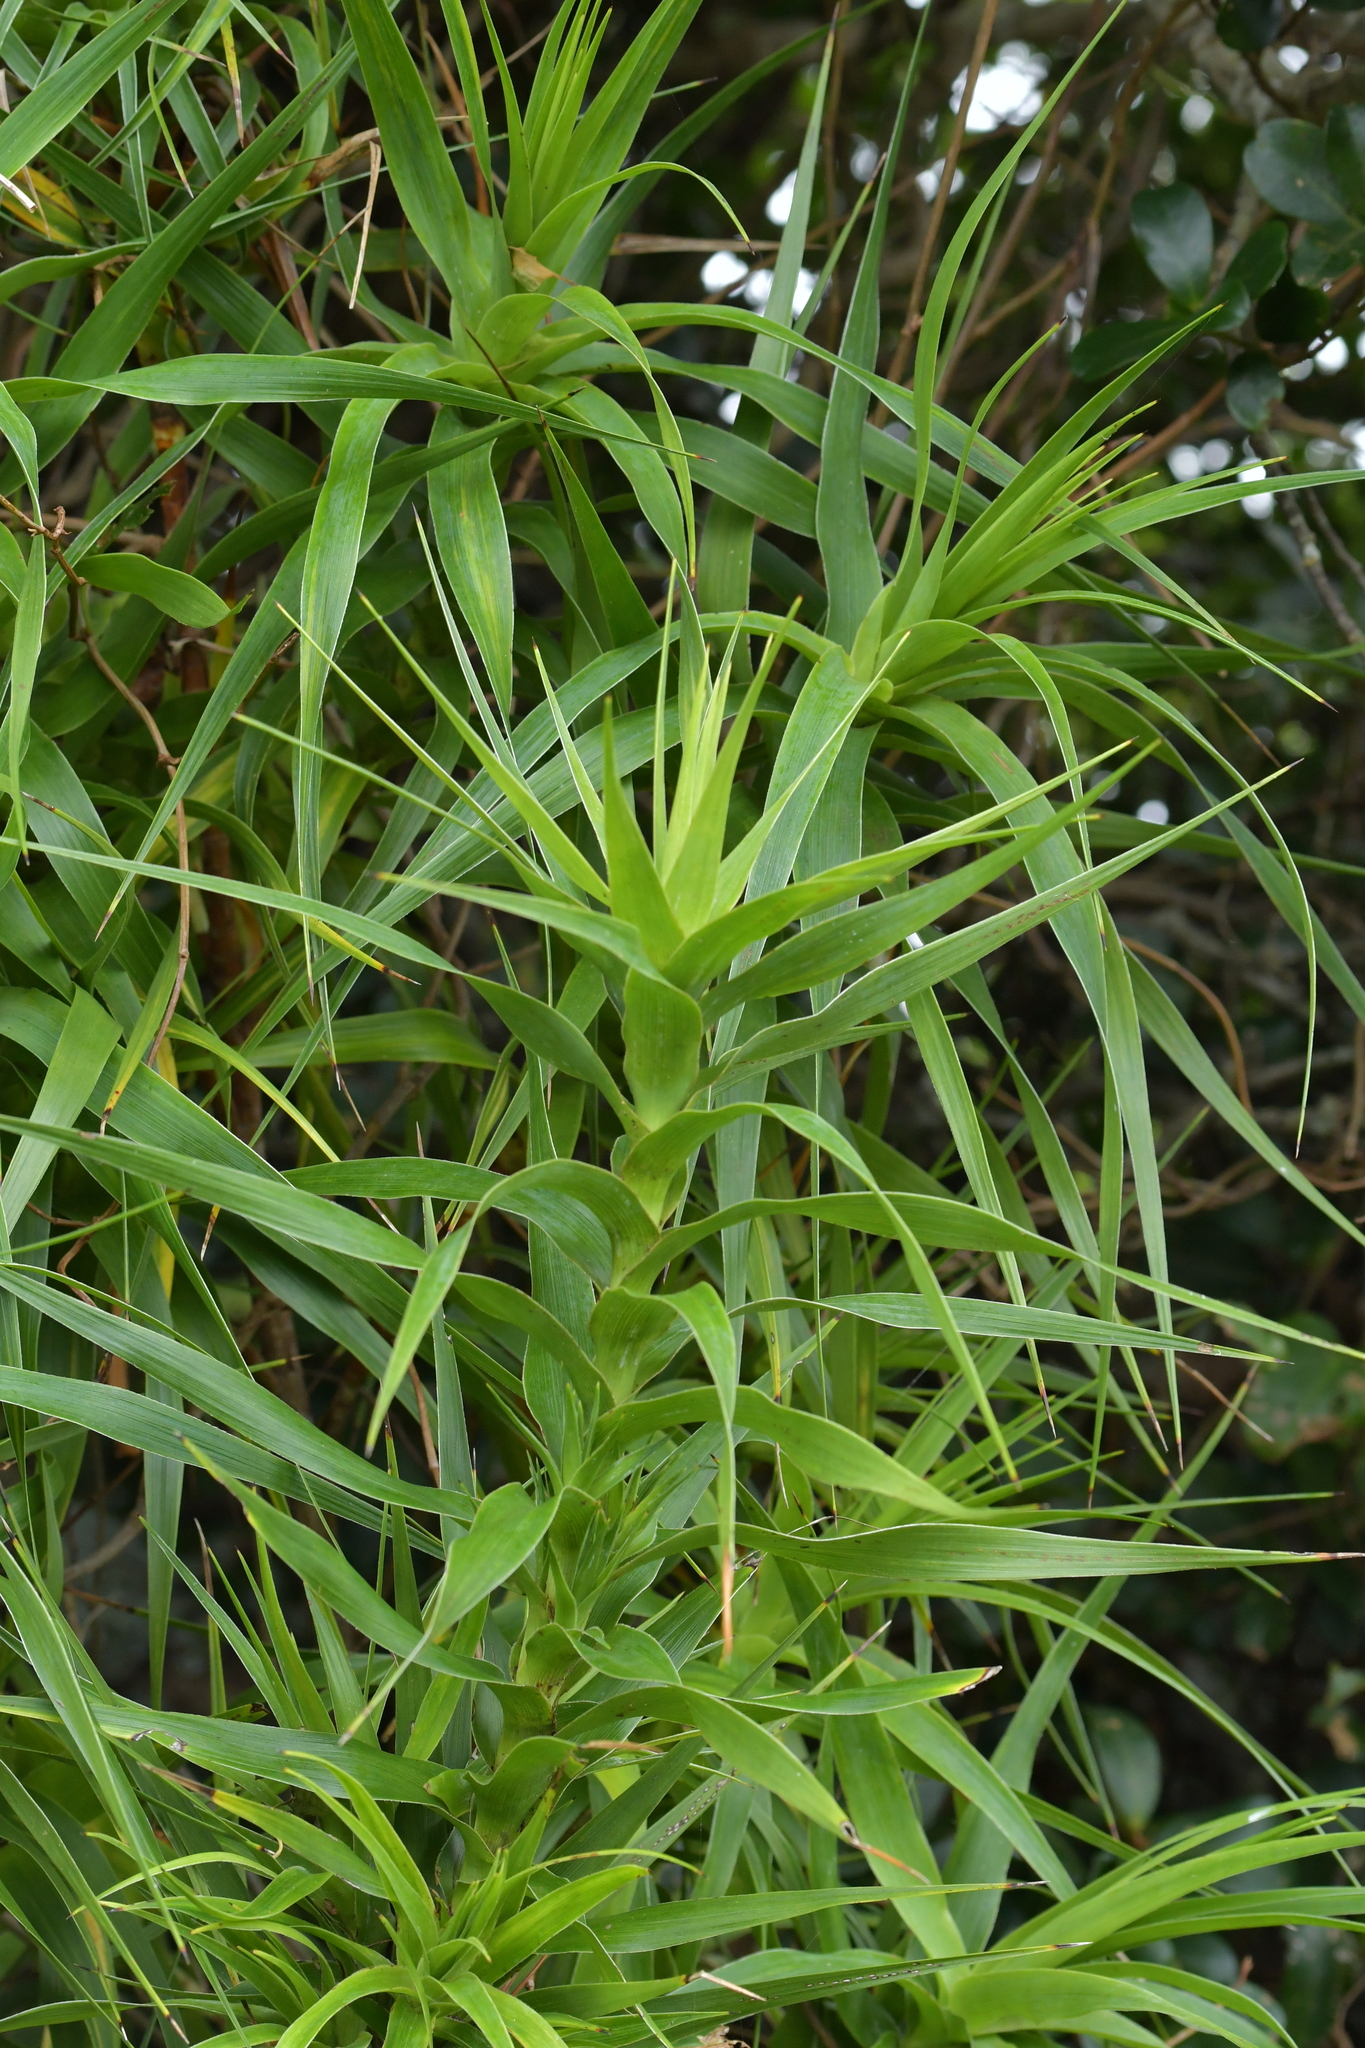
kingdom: Plantae
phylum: Tracheophyta
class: Magnoliopsida
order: Ericales
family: Ericaceae
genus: Dracophyllum
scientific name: Dracophyllum arboreum
